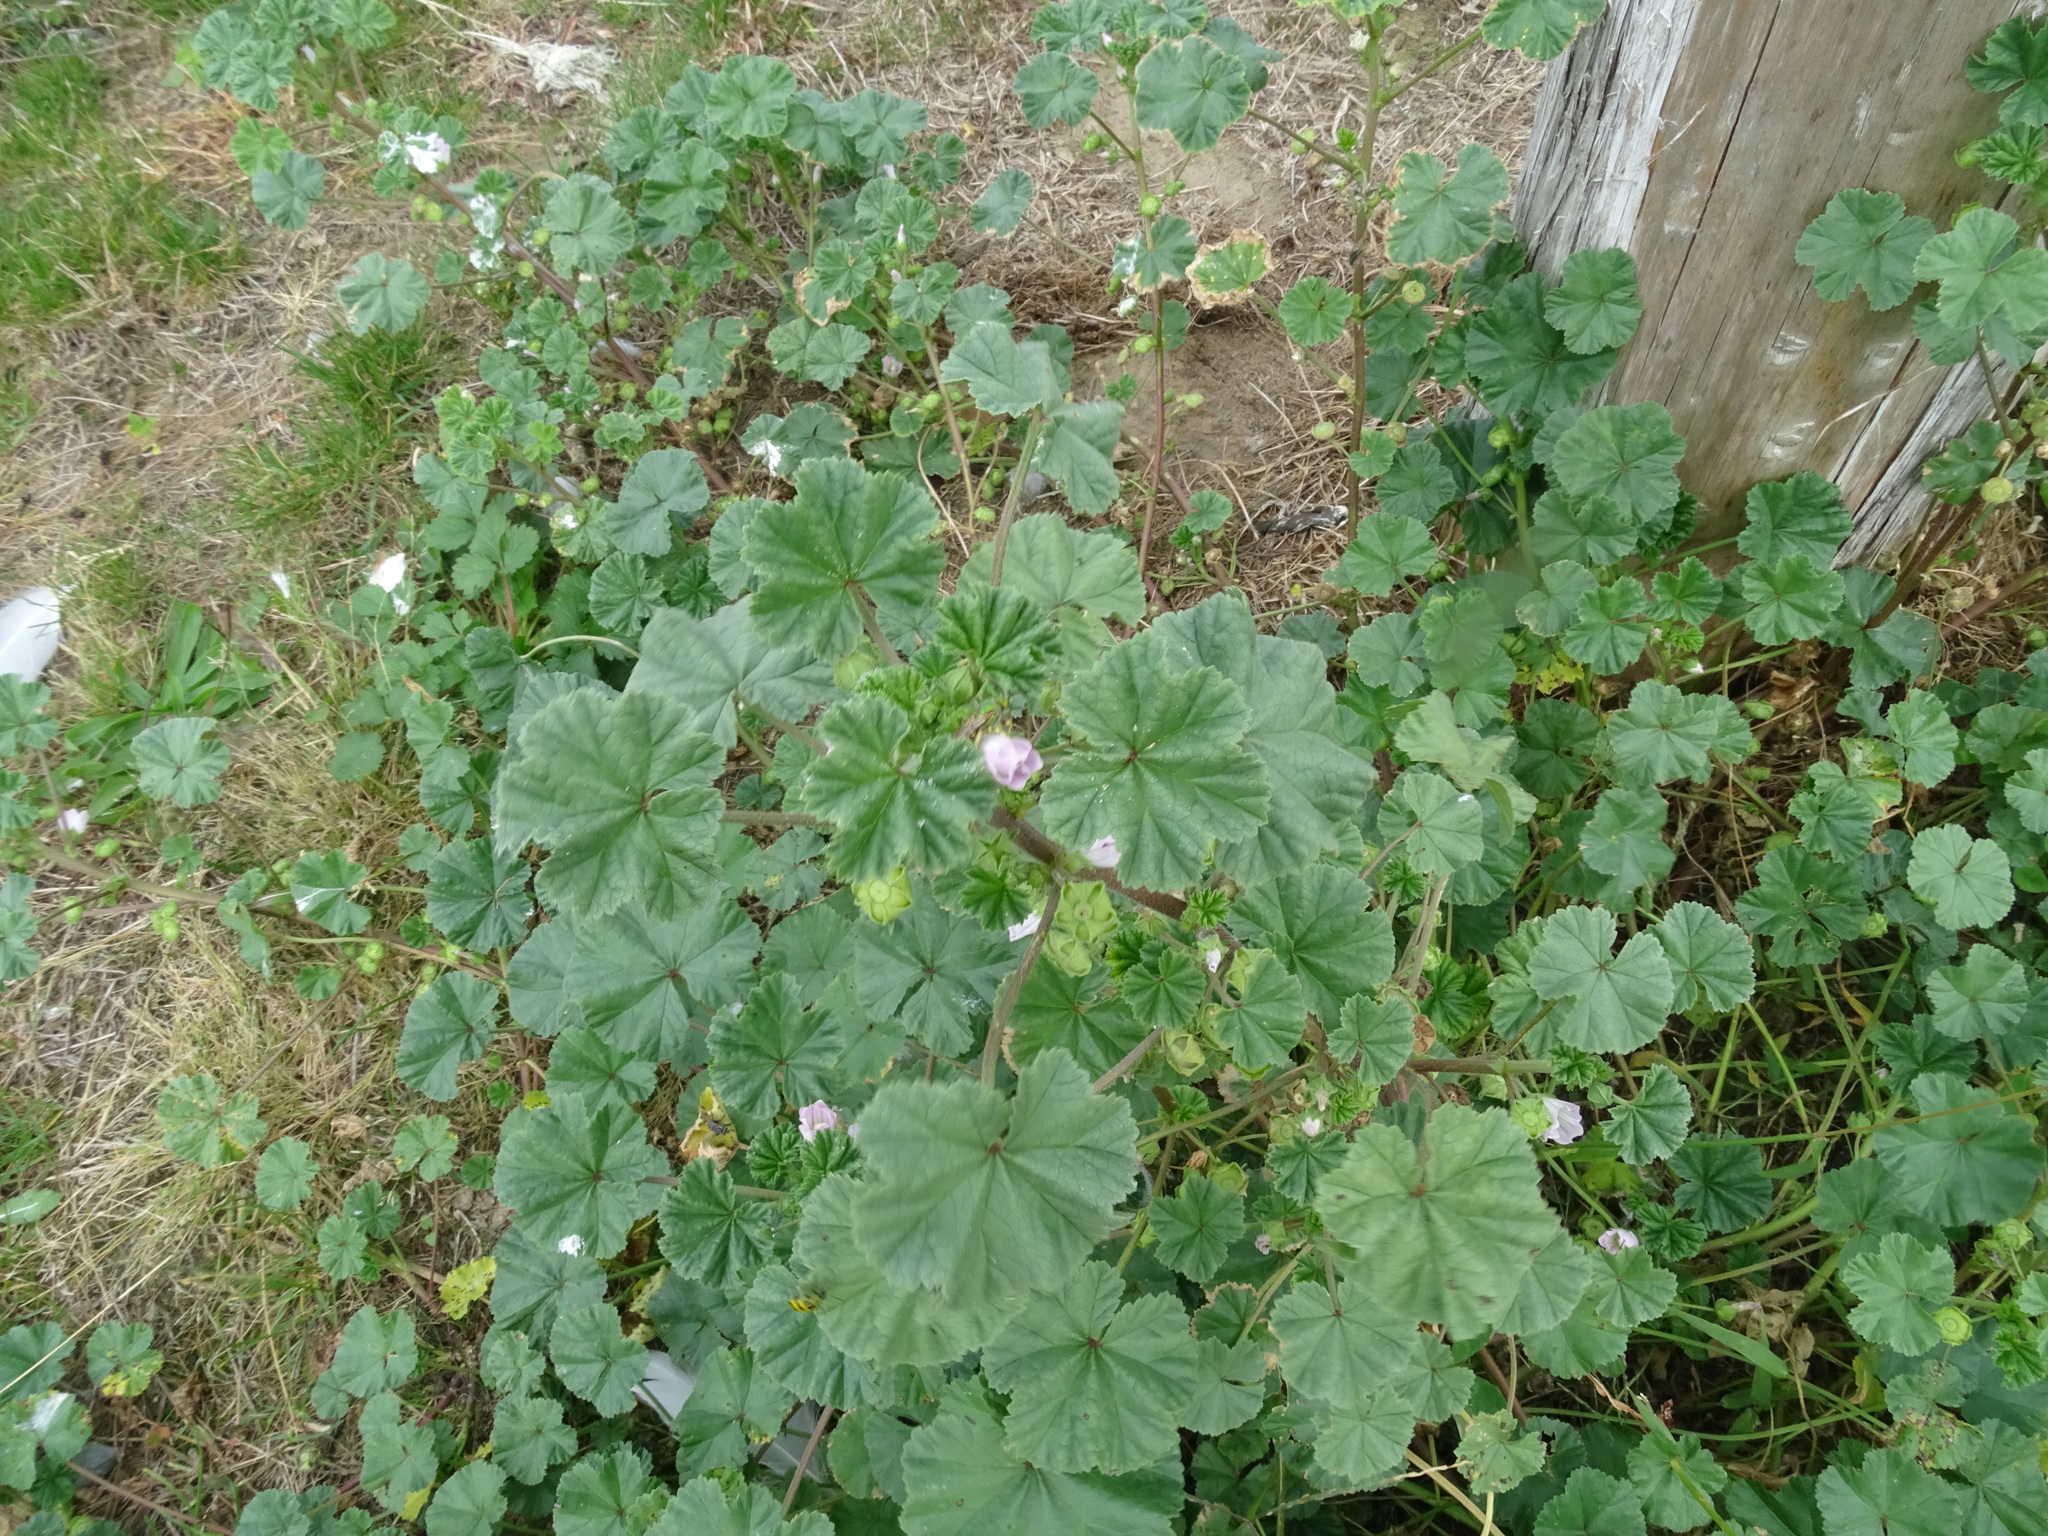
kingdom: Plantae
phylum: Tracheophyta
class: Magnoliopsida
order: Malvales
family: Malvaceae
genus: Malva
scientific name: Malva neglecta
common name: Common mallow
